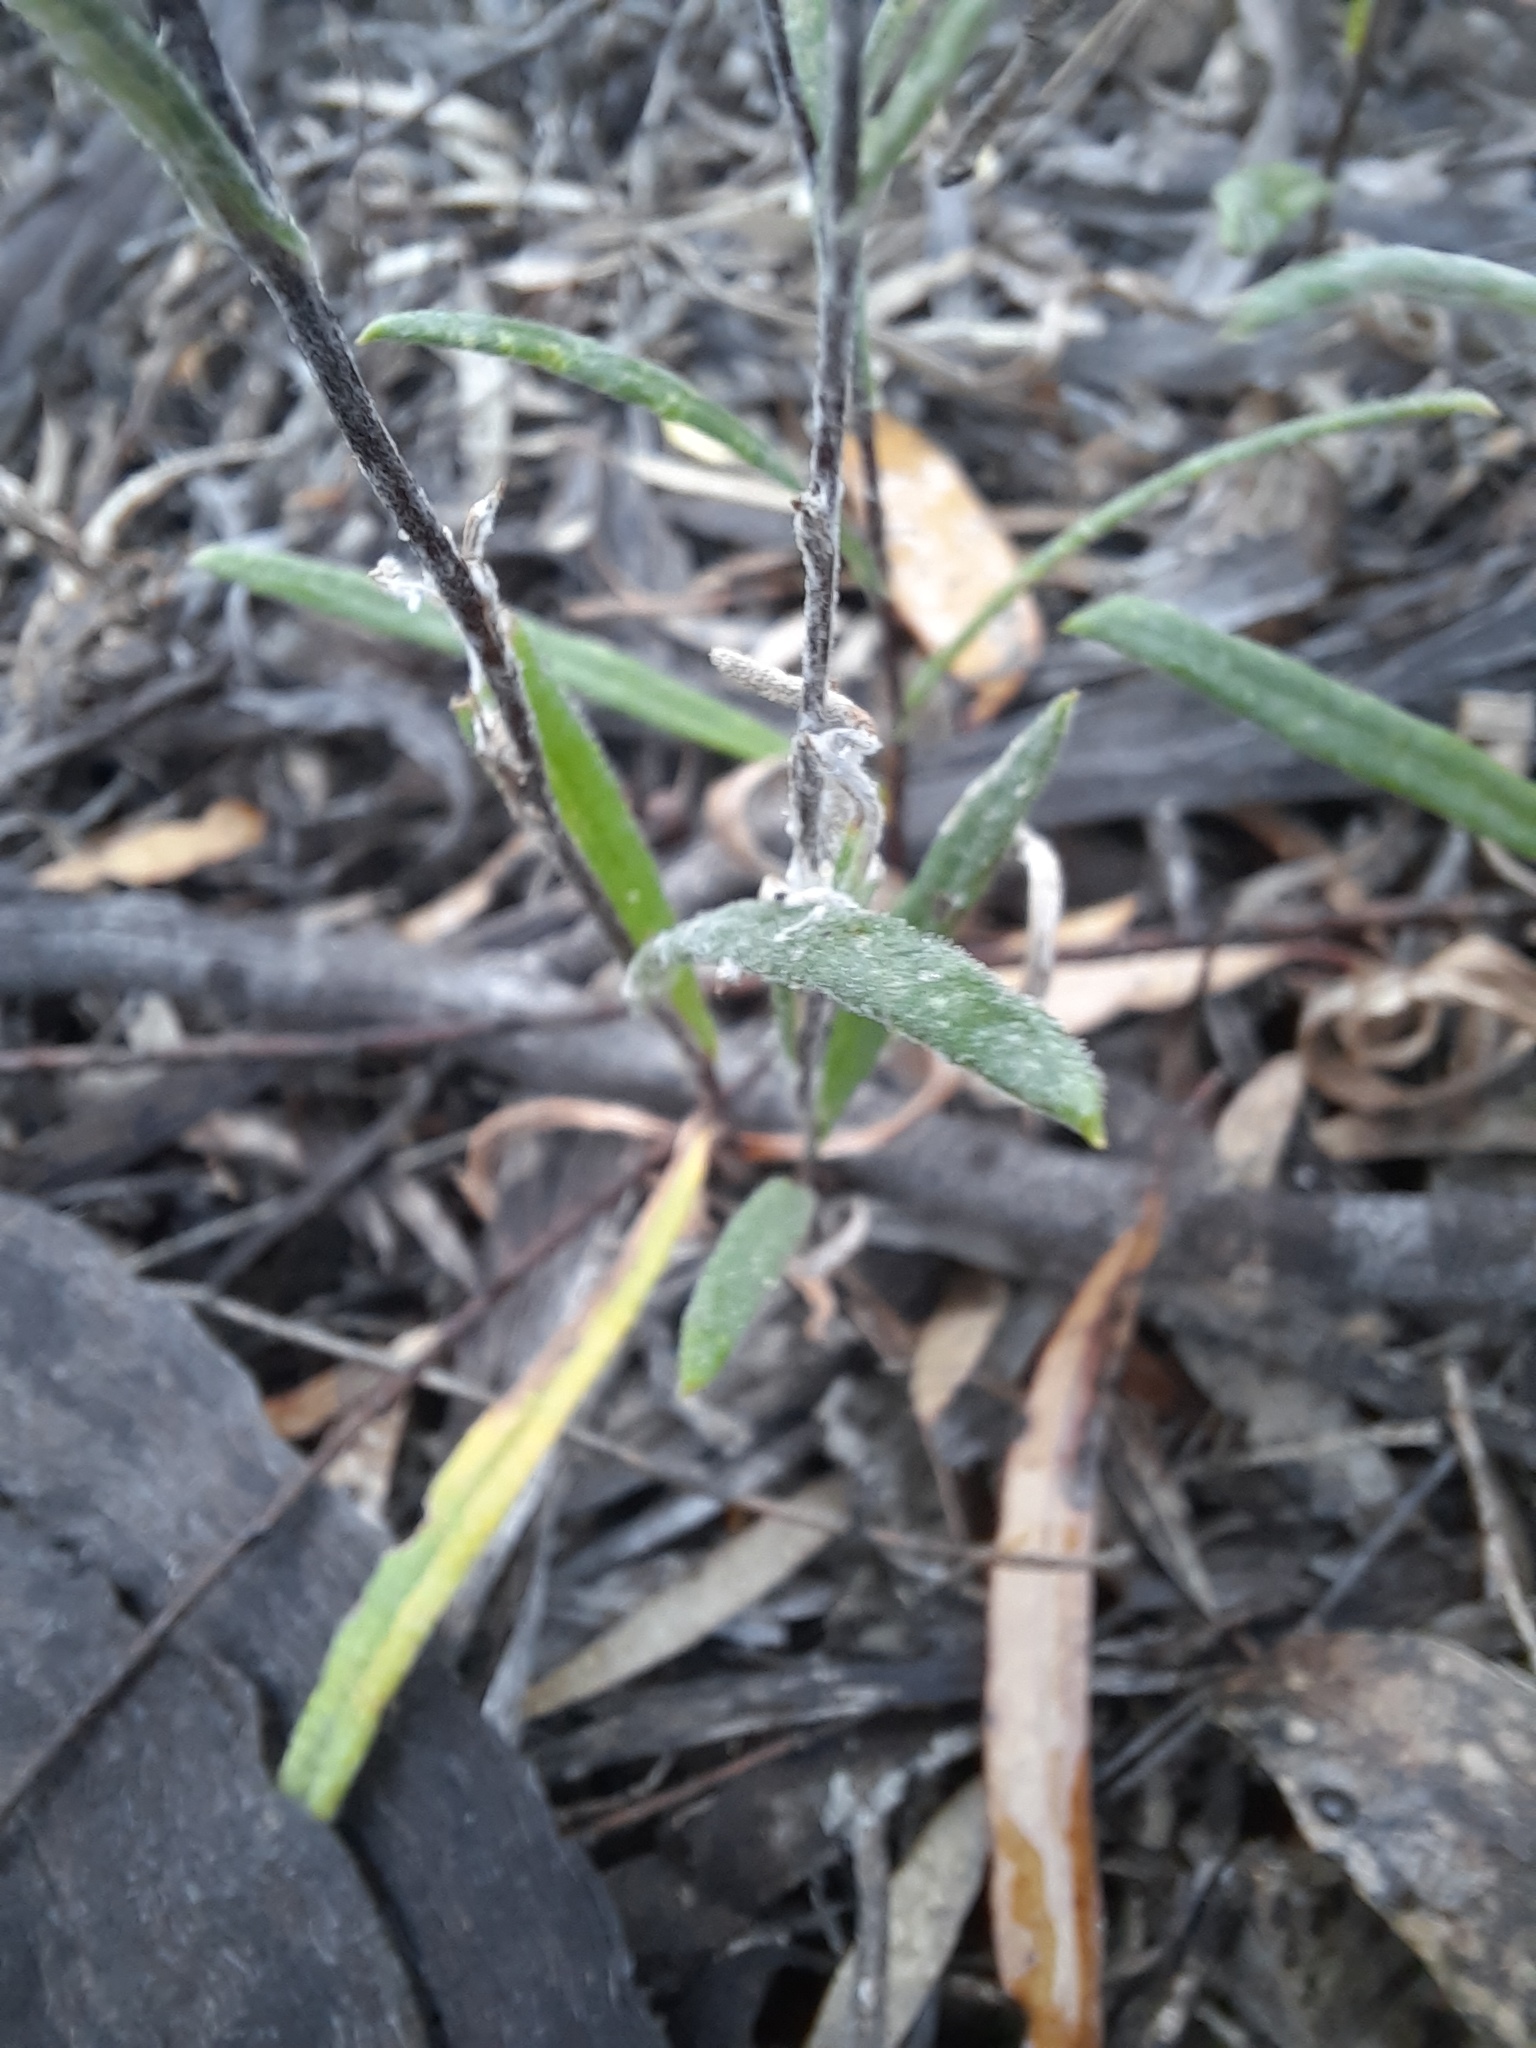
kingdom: Plantae
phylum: Tracheophyta
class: Magnoliopsida
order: Asterales
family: Asteraceae
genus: Helichrysum
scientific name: Helichrysum leucopsideum
